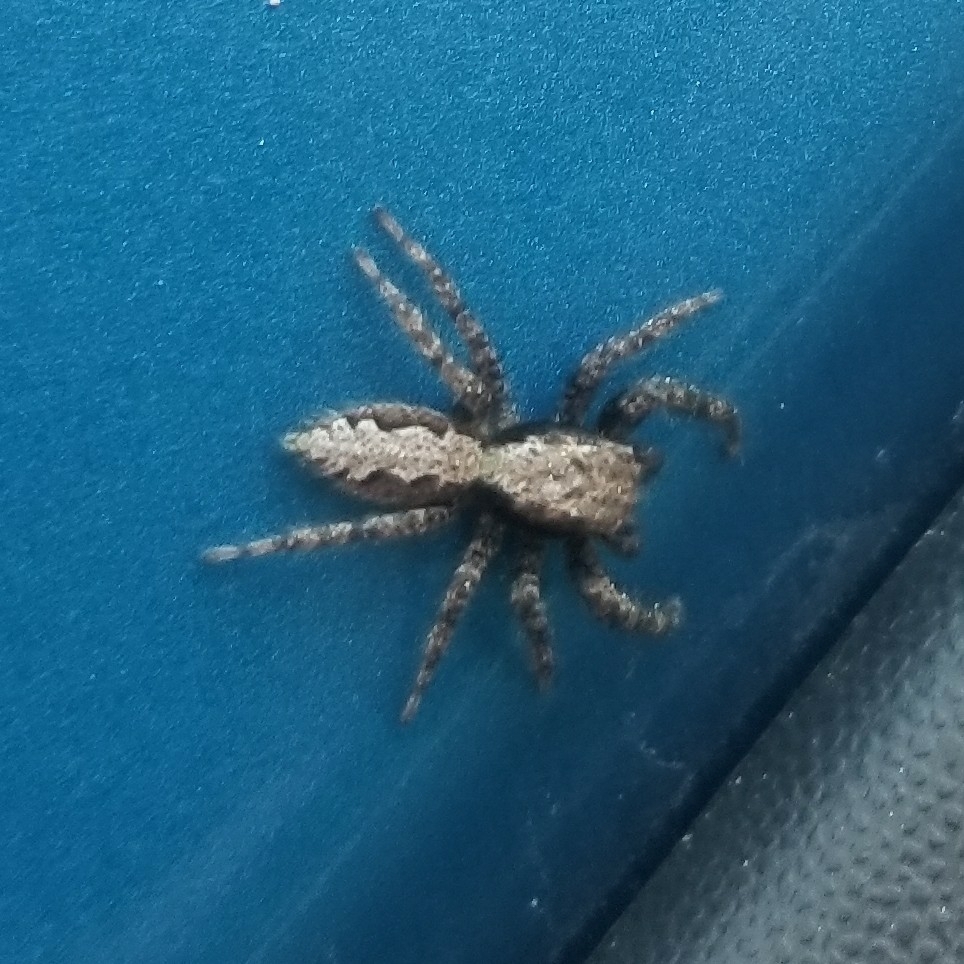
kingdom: Animalia
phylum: Arthropoda
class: Arachnida
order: Araneae
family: Salticidae
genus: Platycryptus
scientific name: Platycryptus californicus
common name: Jumping spiders
